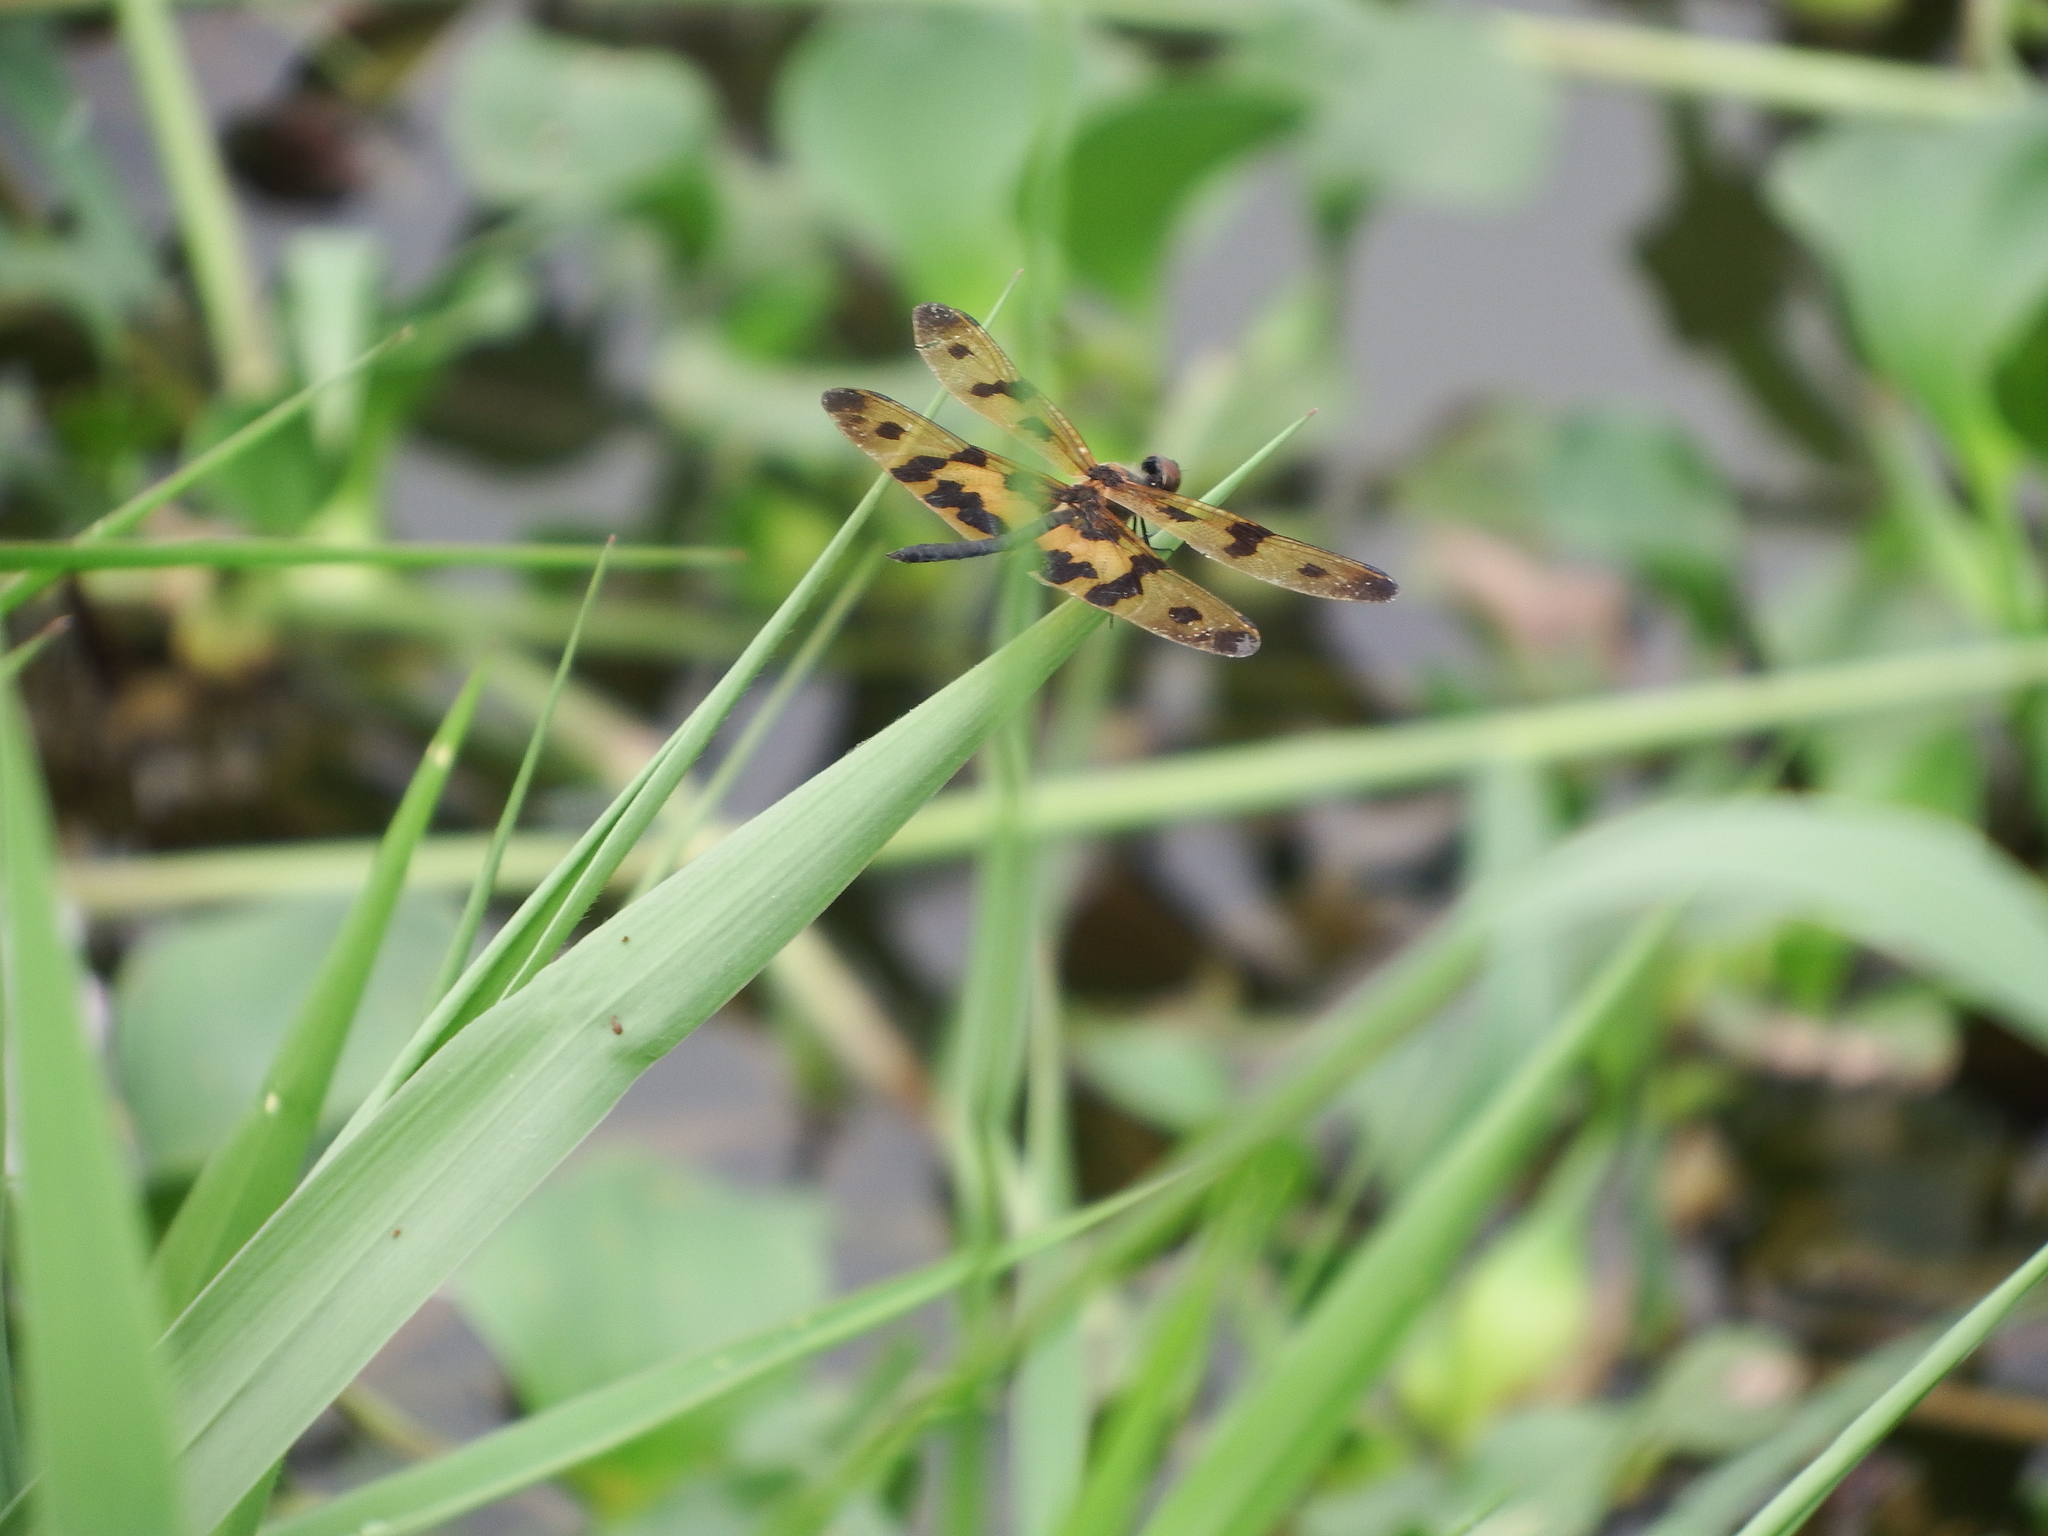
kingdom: Animalia
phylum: Arthropoda
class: Insecta
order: Odonata
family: Libellulidae
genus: Rhyothemis
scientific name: Rhyothemis variegata
